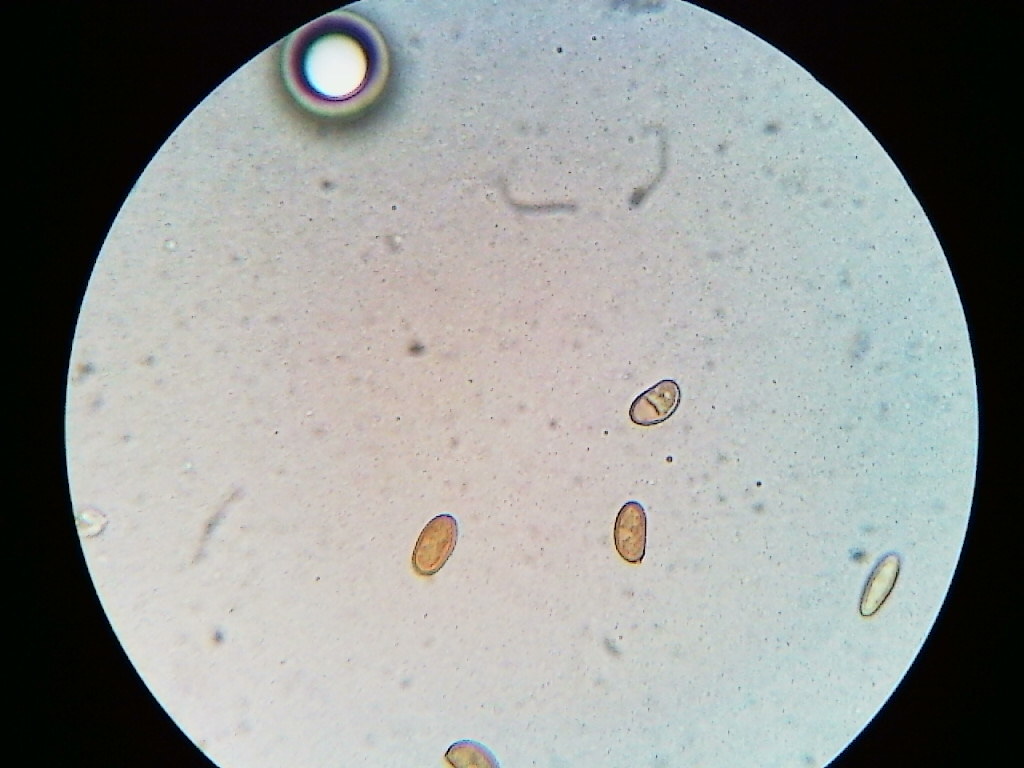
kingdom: Fungi
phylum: Basidiomycota
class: Agaricomycetes
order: Agaricales
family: Inocybaceae
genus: Pseudosperma
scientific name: Pseudosperma friabile
